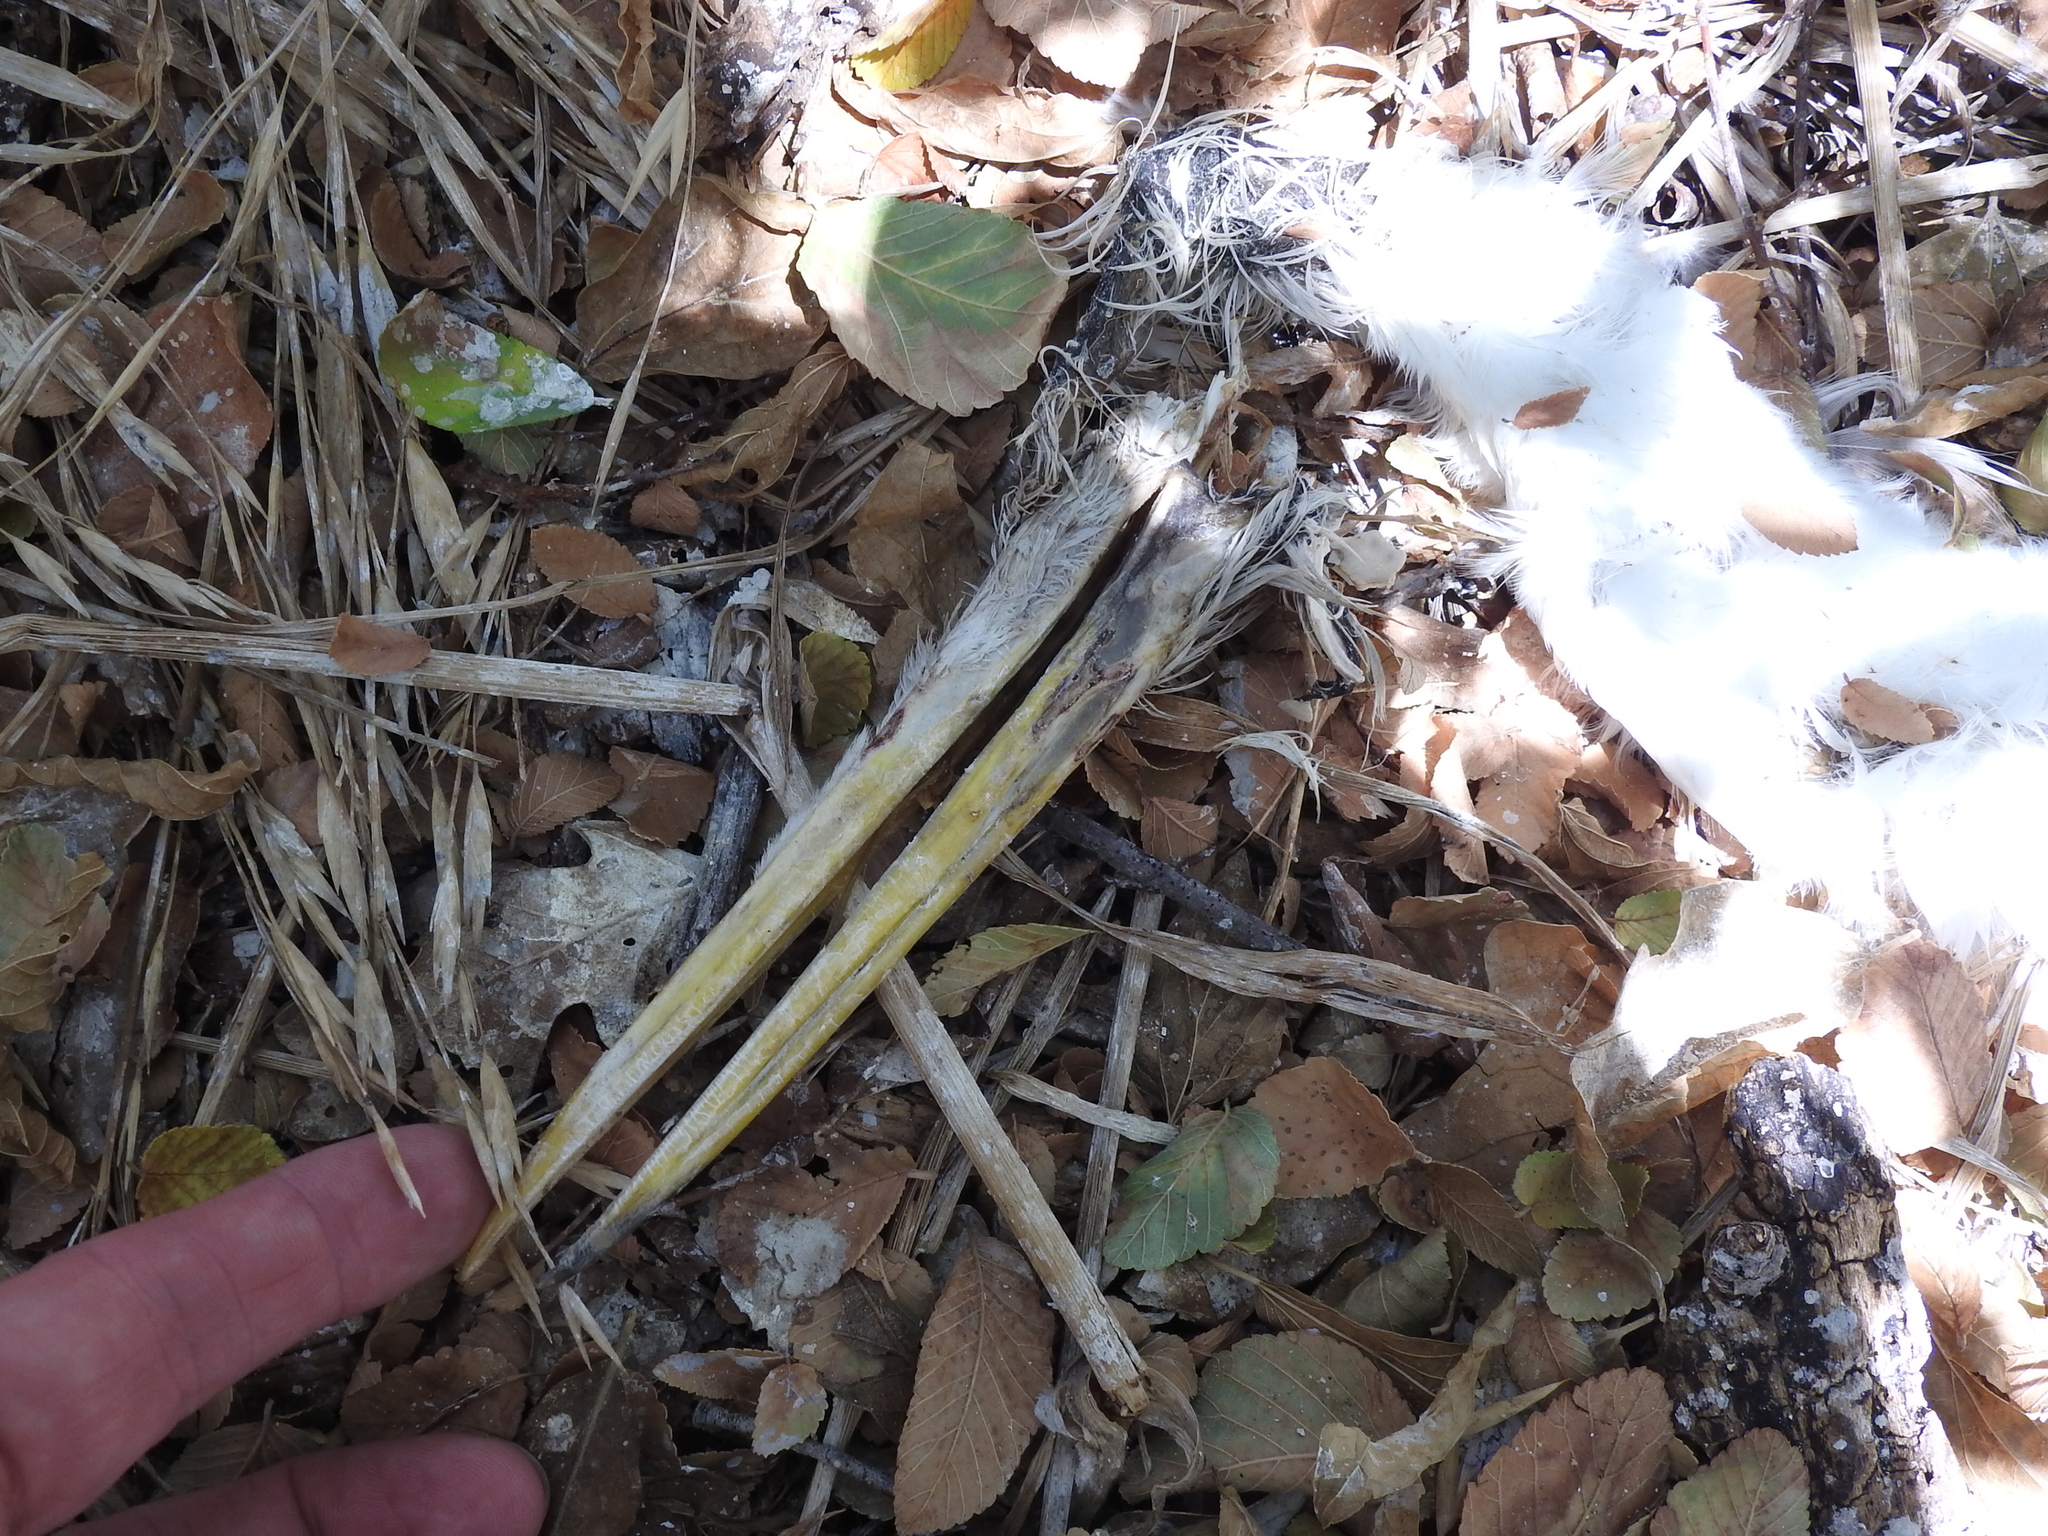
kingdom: Animalia
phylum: Chordata
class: Aves
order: Pelecaniformes
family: Ardeidae
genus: Ardea
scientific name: Ardea alba
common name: Great egret
